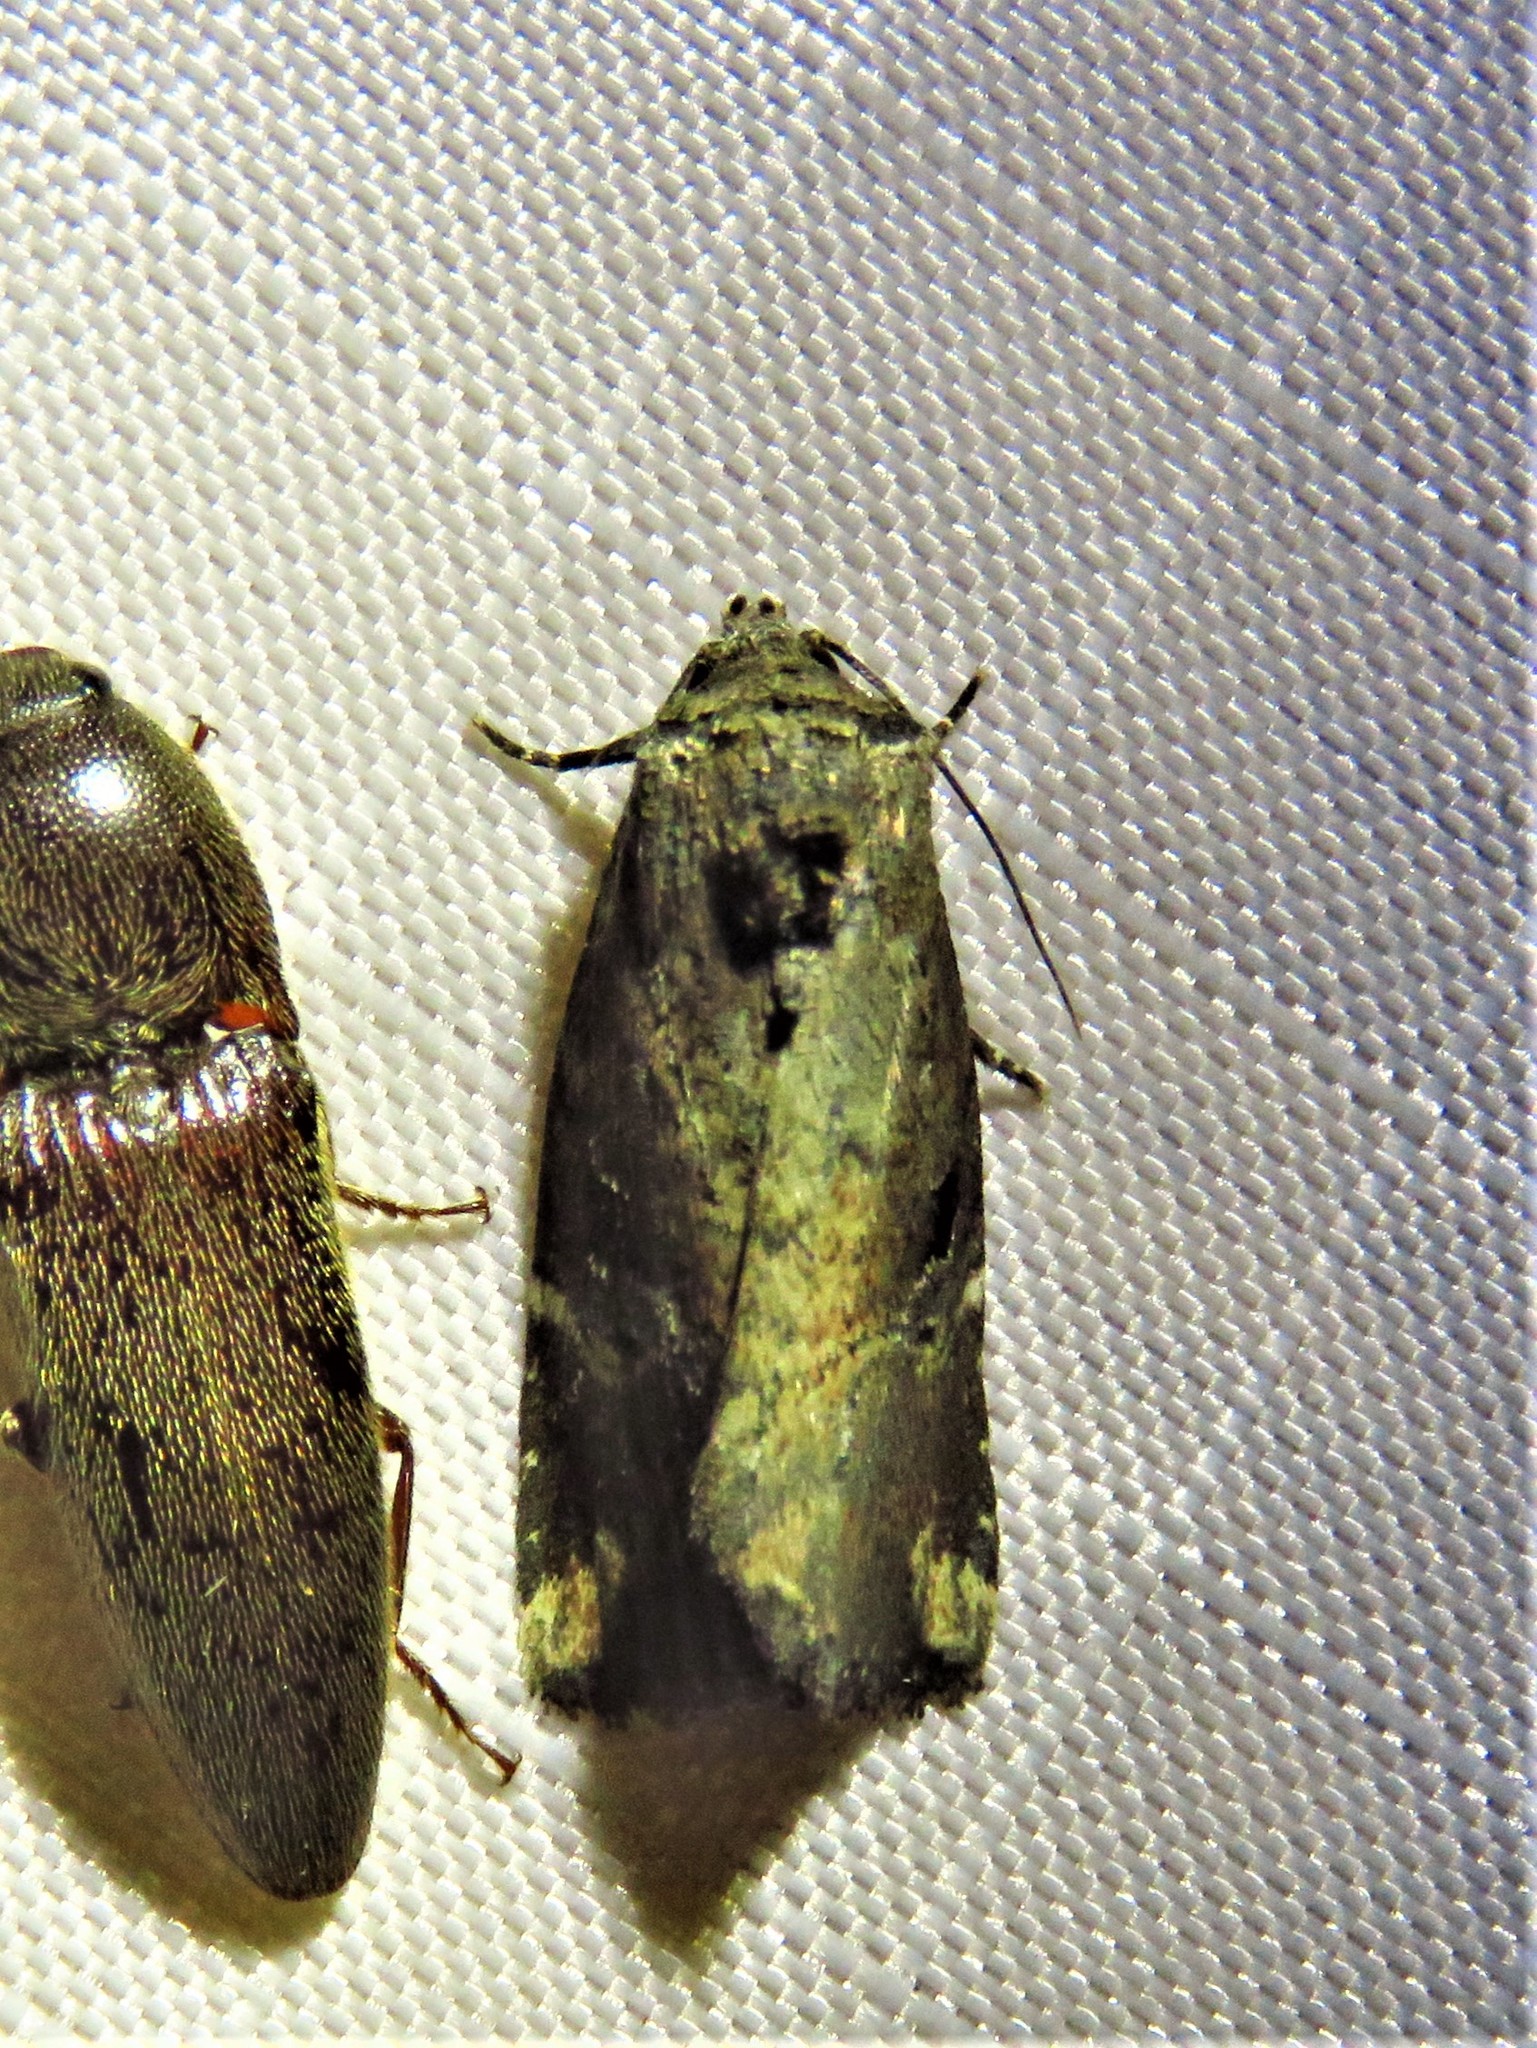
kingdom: Animalia
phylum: Arthropoda
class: Insecta
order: Lepidoptera
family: Noctuidae
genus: Elaphria
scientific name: Elaphria chalcedonia
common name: Chalcedony midget
